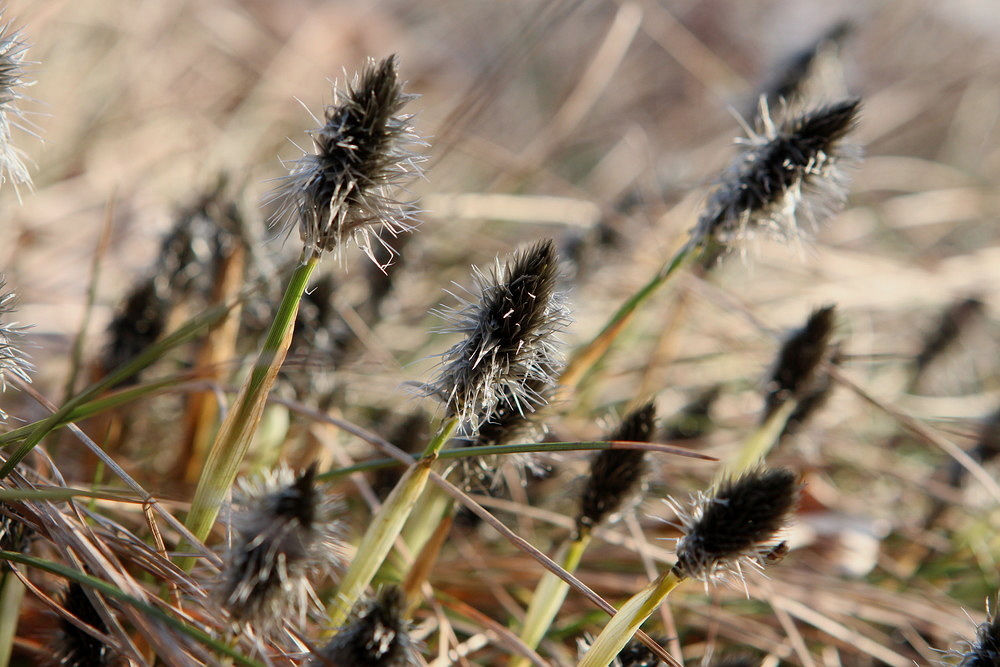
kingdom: Plantae
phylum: Tracheophyta
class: Liliopsida
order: Poales
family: Cyperaceae
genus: Eriophorum
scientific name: Eriophorum vaginatum
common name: Hare's-tail cottongrass
